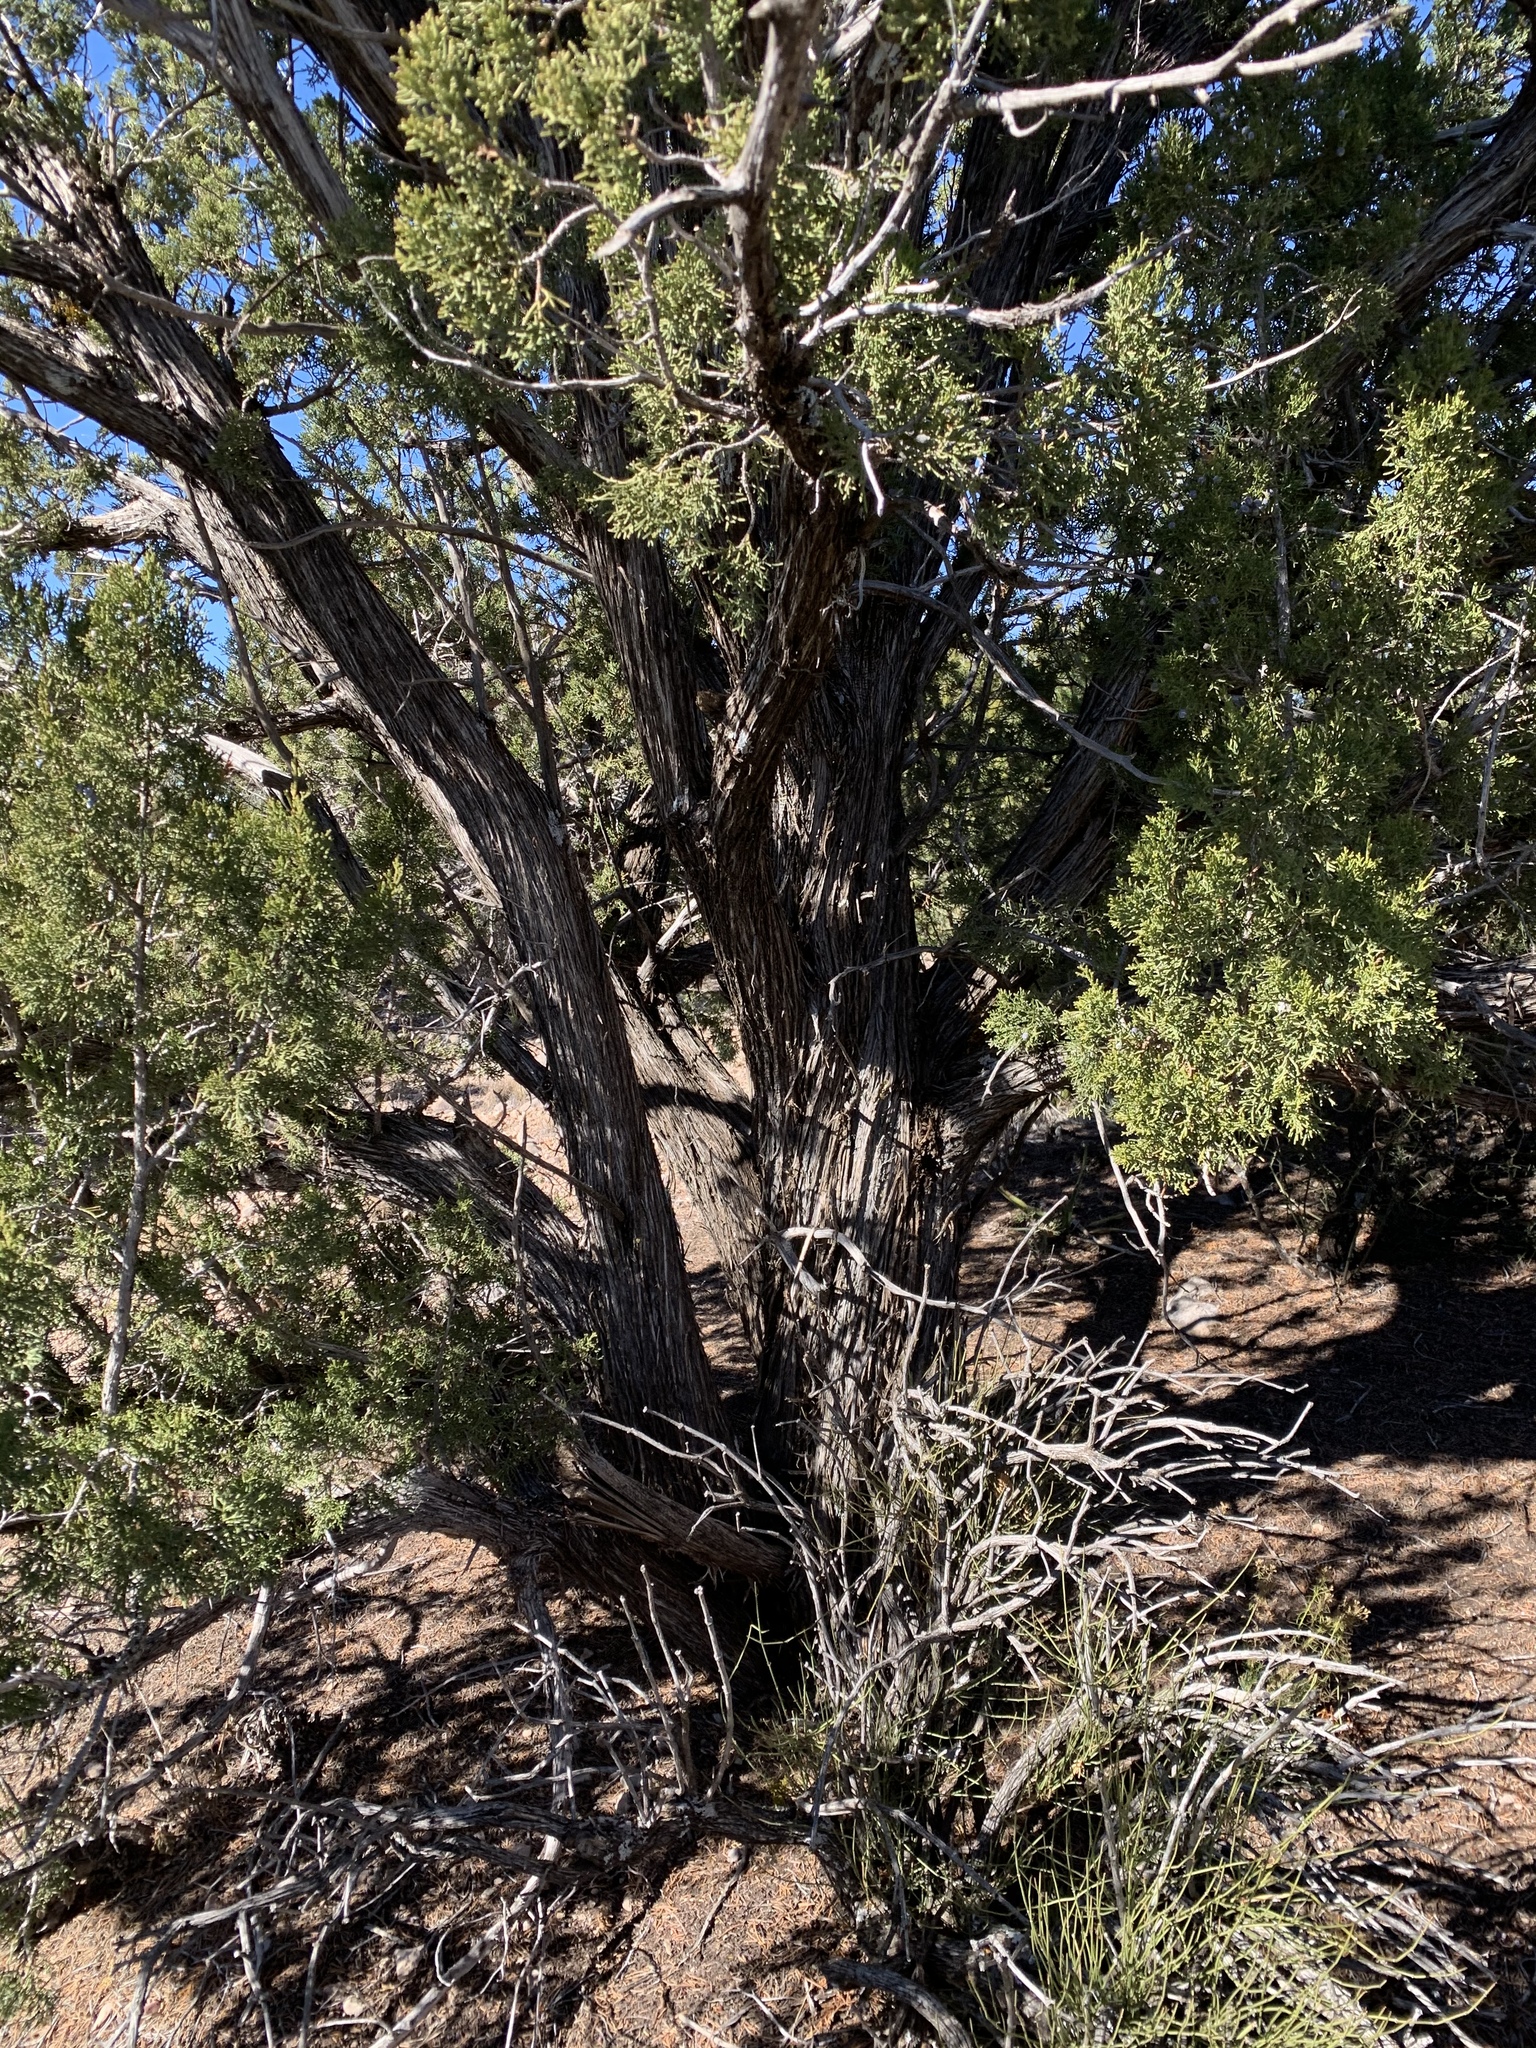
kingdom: Plantae
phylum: Tracheophyta
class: Pinopsida
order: Pinales
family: Cupressaceae
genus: Juniperus
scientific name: Juniperus monosperma
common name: One-seed juniper
